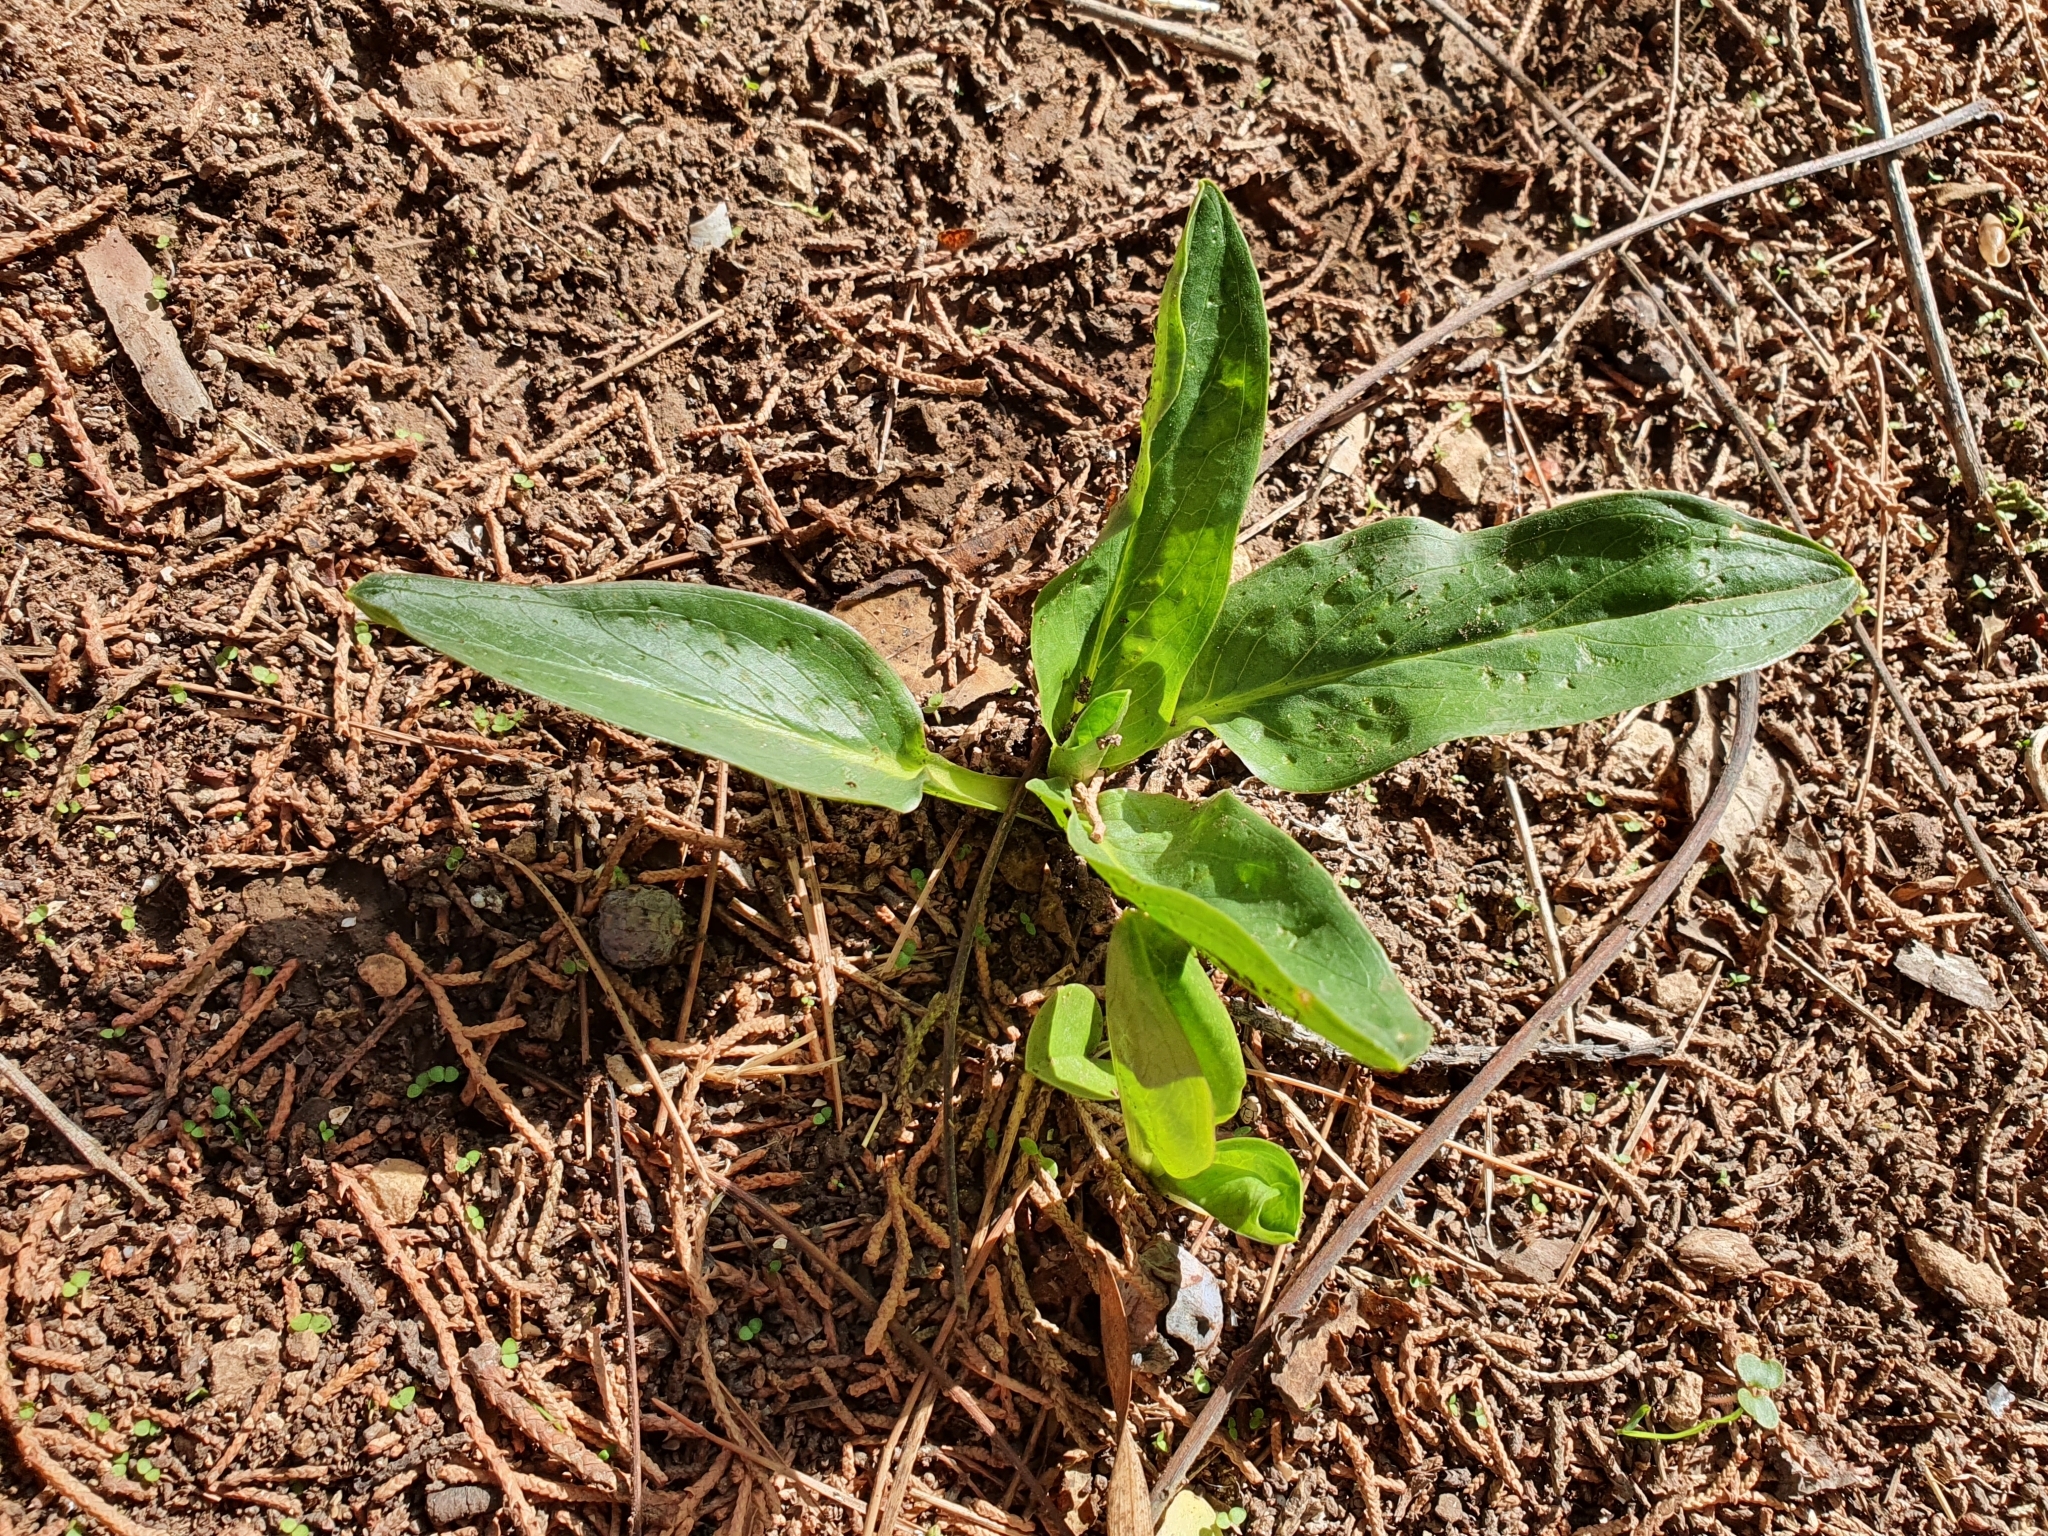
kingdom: Plantae
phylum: Tracheophyta
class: Liliopsida
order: Alismatales
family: Araceae
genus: Biarum
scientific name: Biarum dispar
